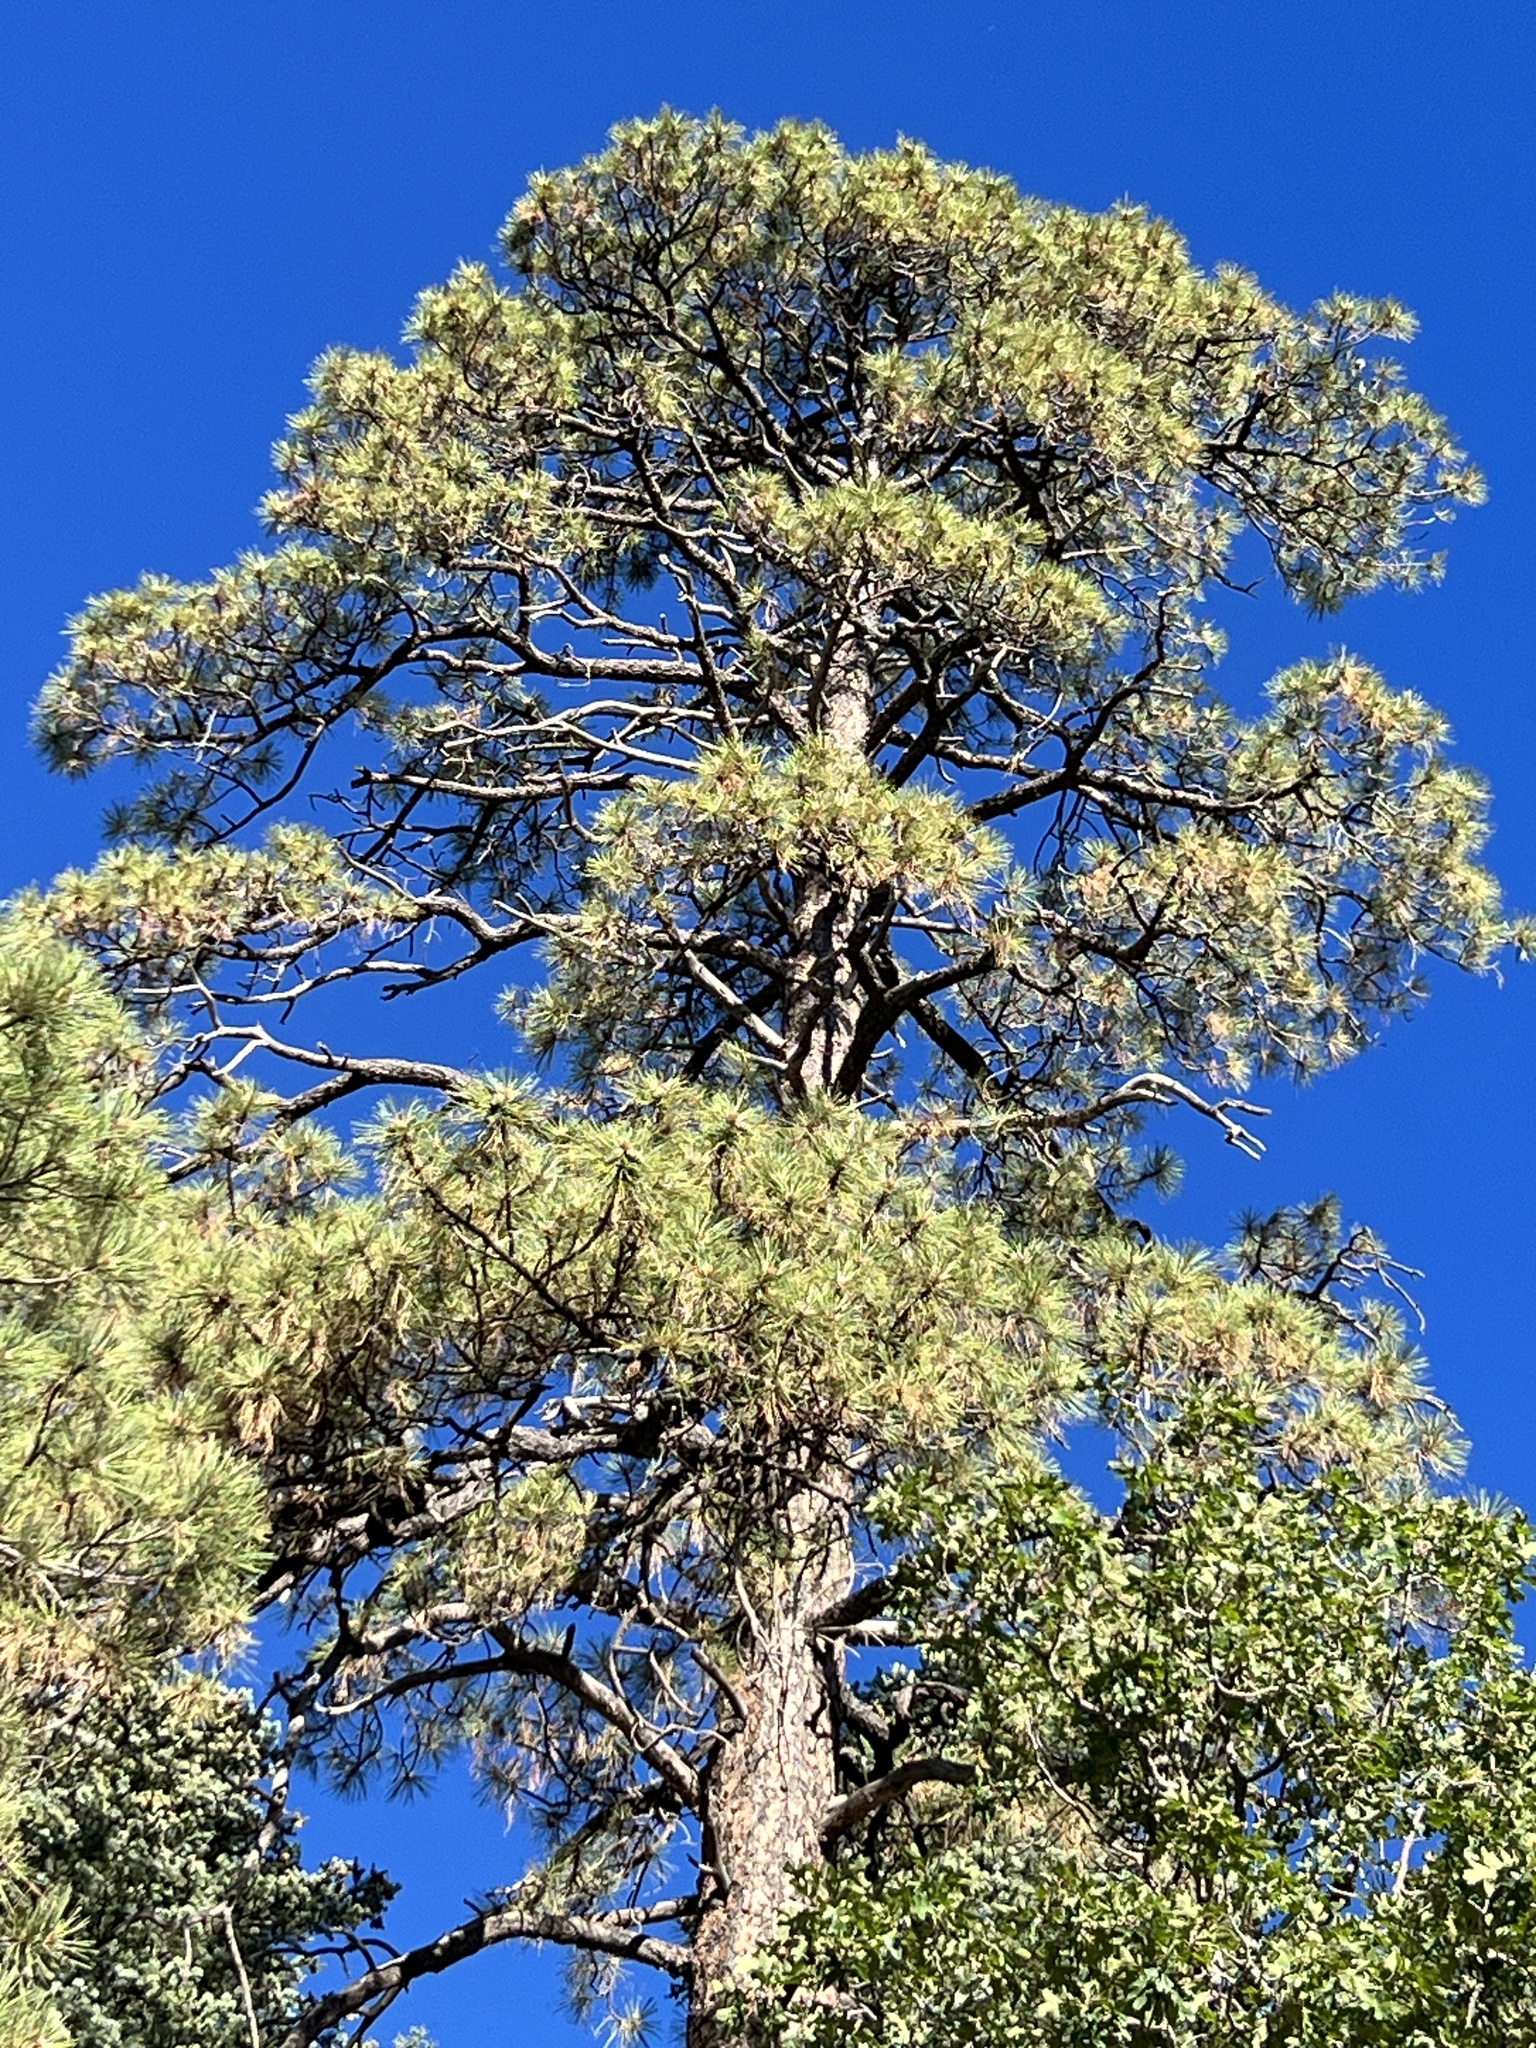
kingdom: Plantae
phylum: Tracheophyta
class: Pinopsida
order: Pinales
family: Pinaceae
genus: Pinus
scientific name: Pinus ponderosa
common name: Western yellow-pine
